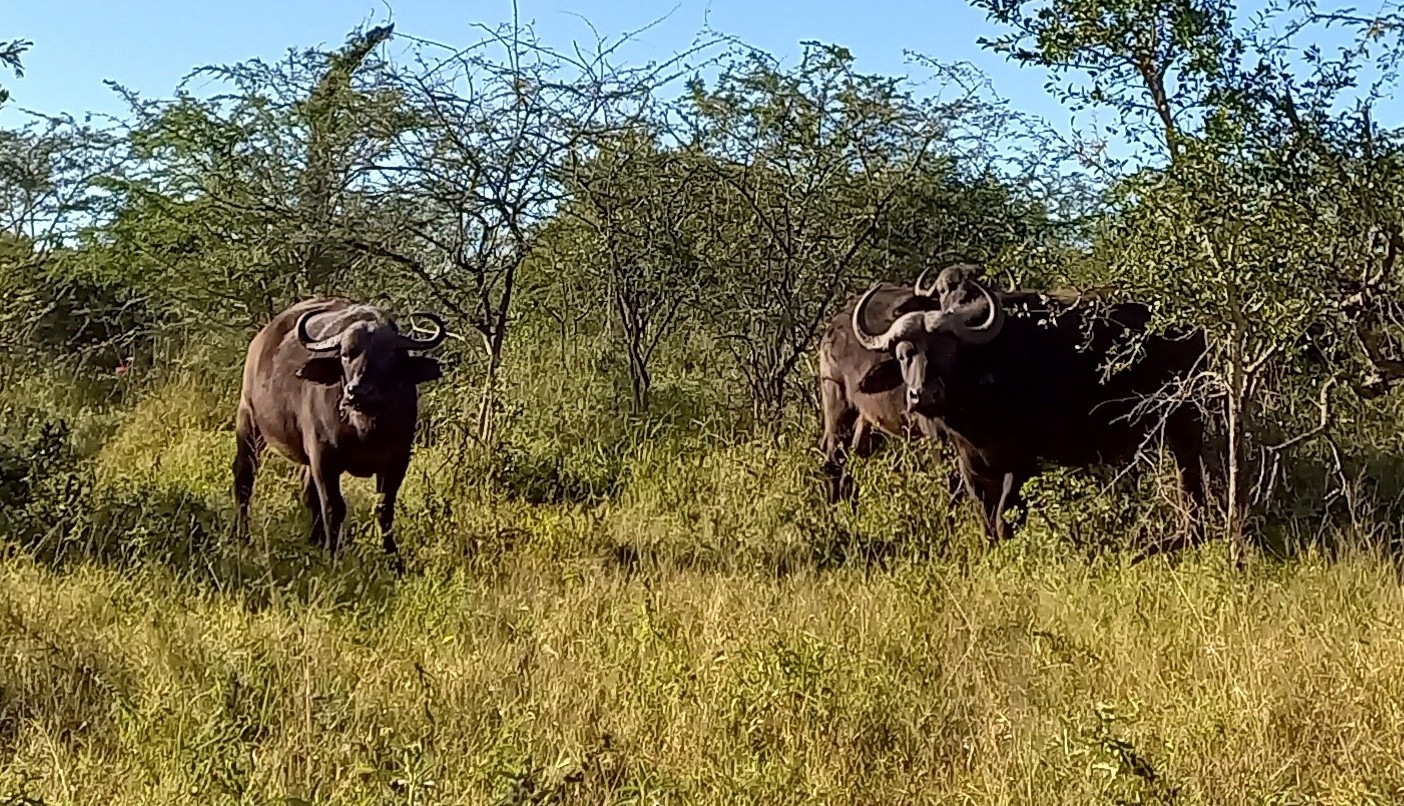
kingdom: Animalia
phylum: Chordata
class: Mammalia
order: Artiodactyla
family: Bovidae
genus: Syncerus
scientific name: Syncerus caffer
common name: African buffalo
